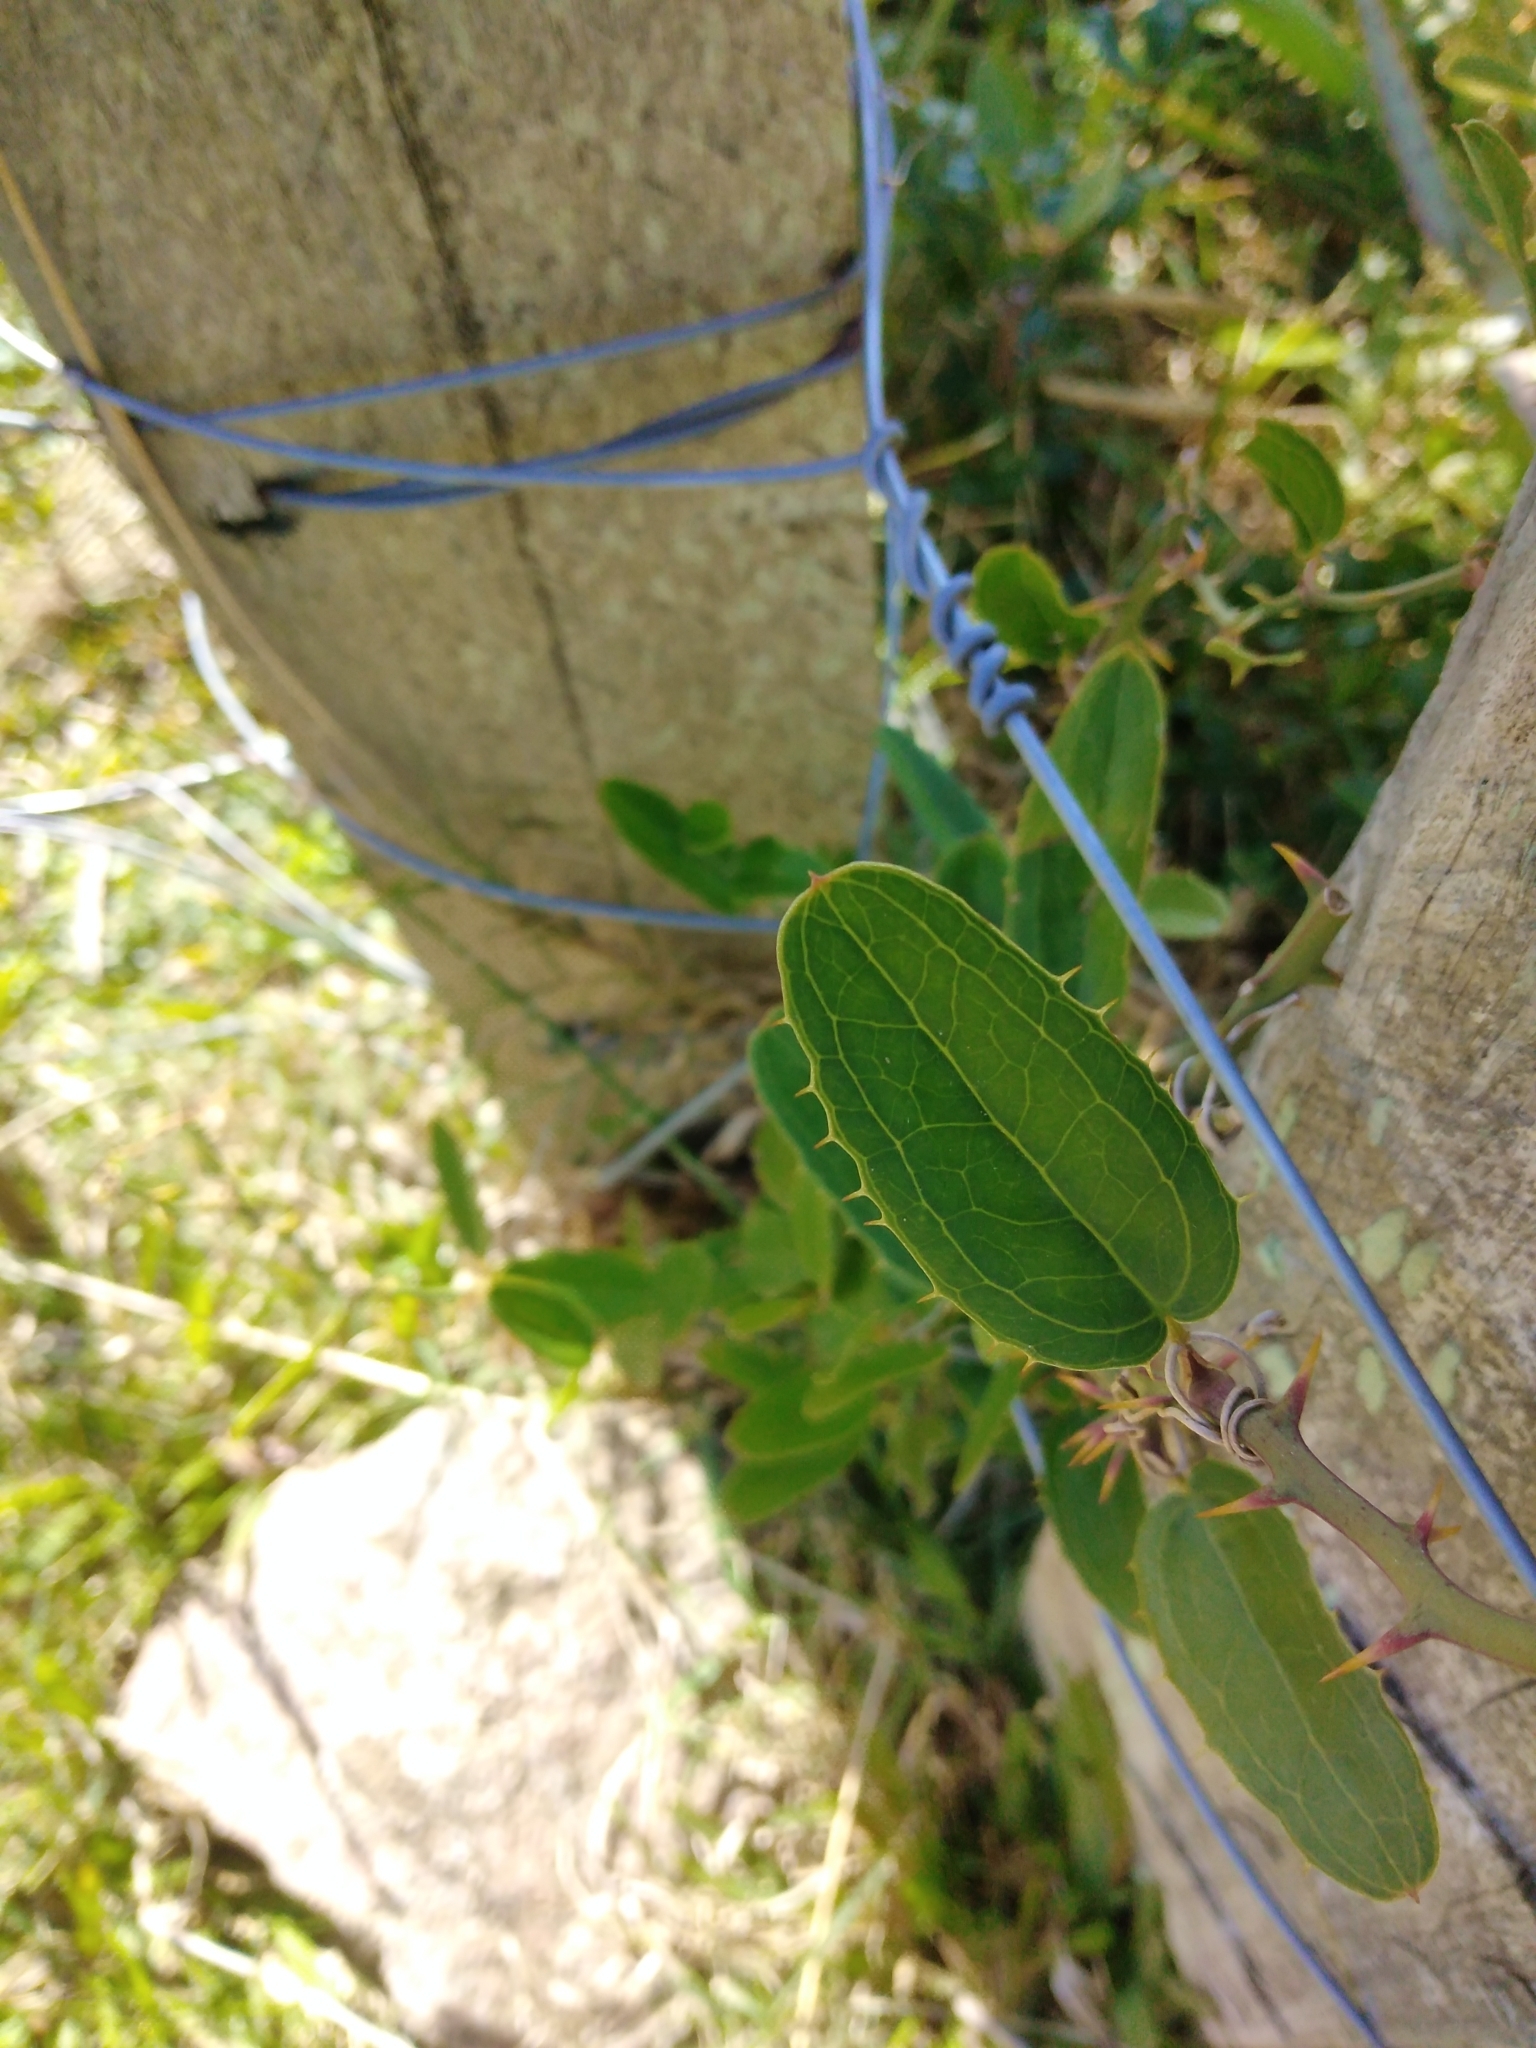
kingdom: Plantae
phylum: Tracheophyta
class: Liliopsida
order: Liliales
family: Smilacaceae
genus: Smilax
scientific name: Smilax campestris
